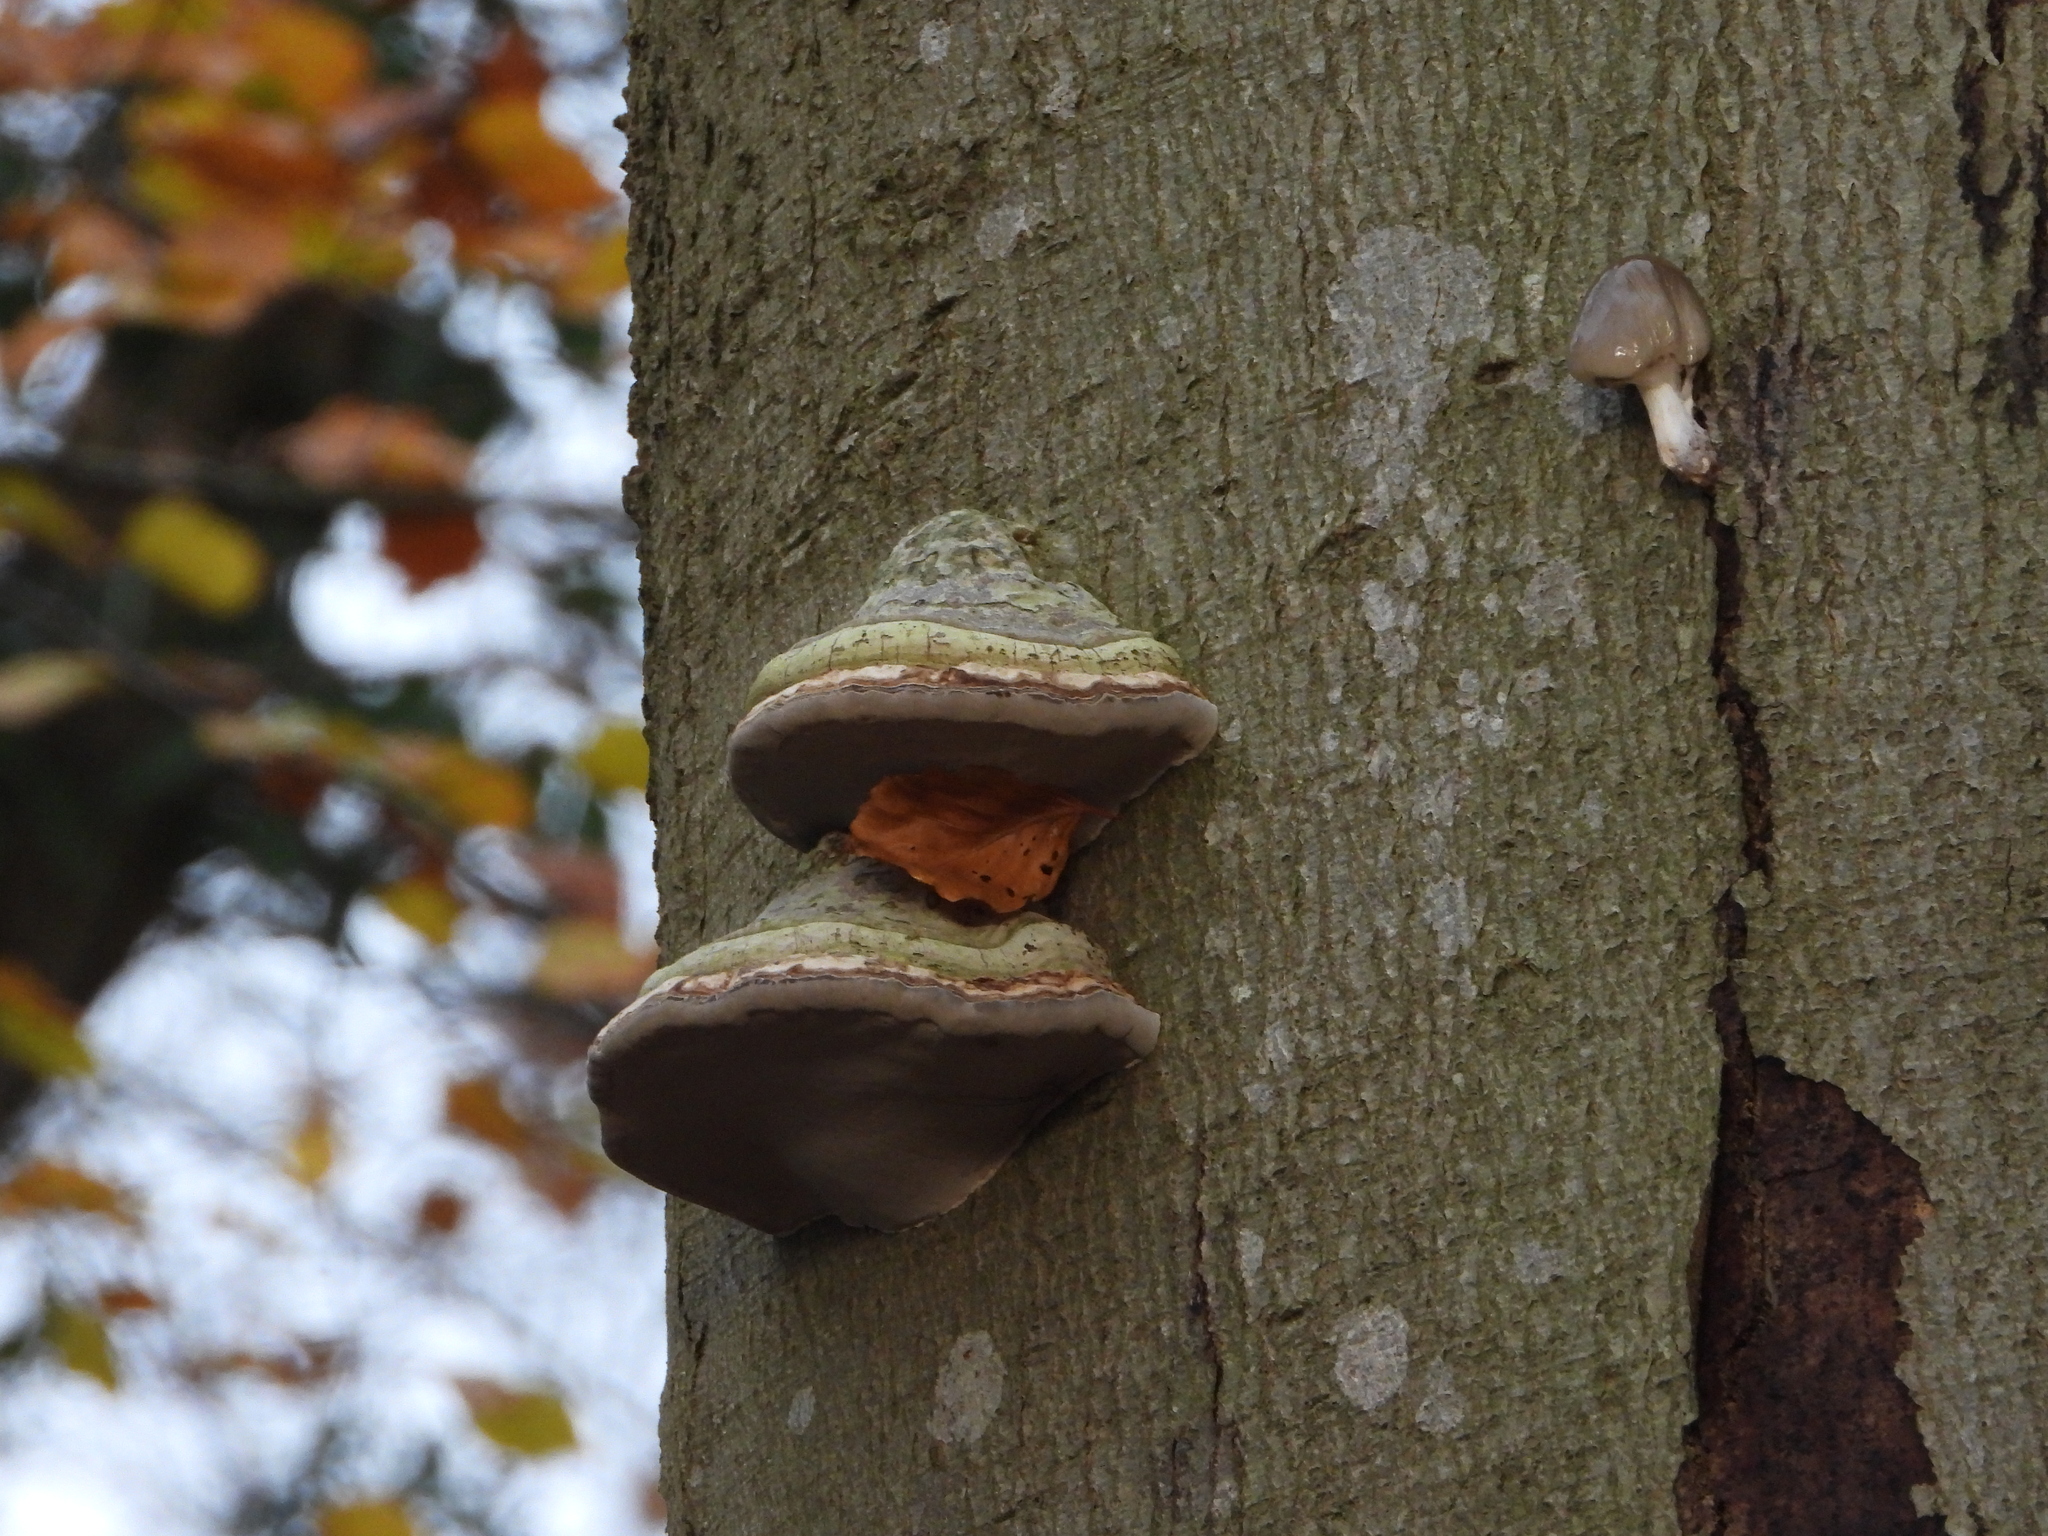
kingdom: Fungi
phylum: Basidiomycota
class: Agaricomycetes
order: Polyporales
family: Polyporaceae
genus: Fomes
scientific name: Fomes fomentarius
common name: Hoof fungus
